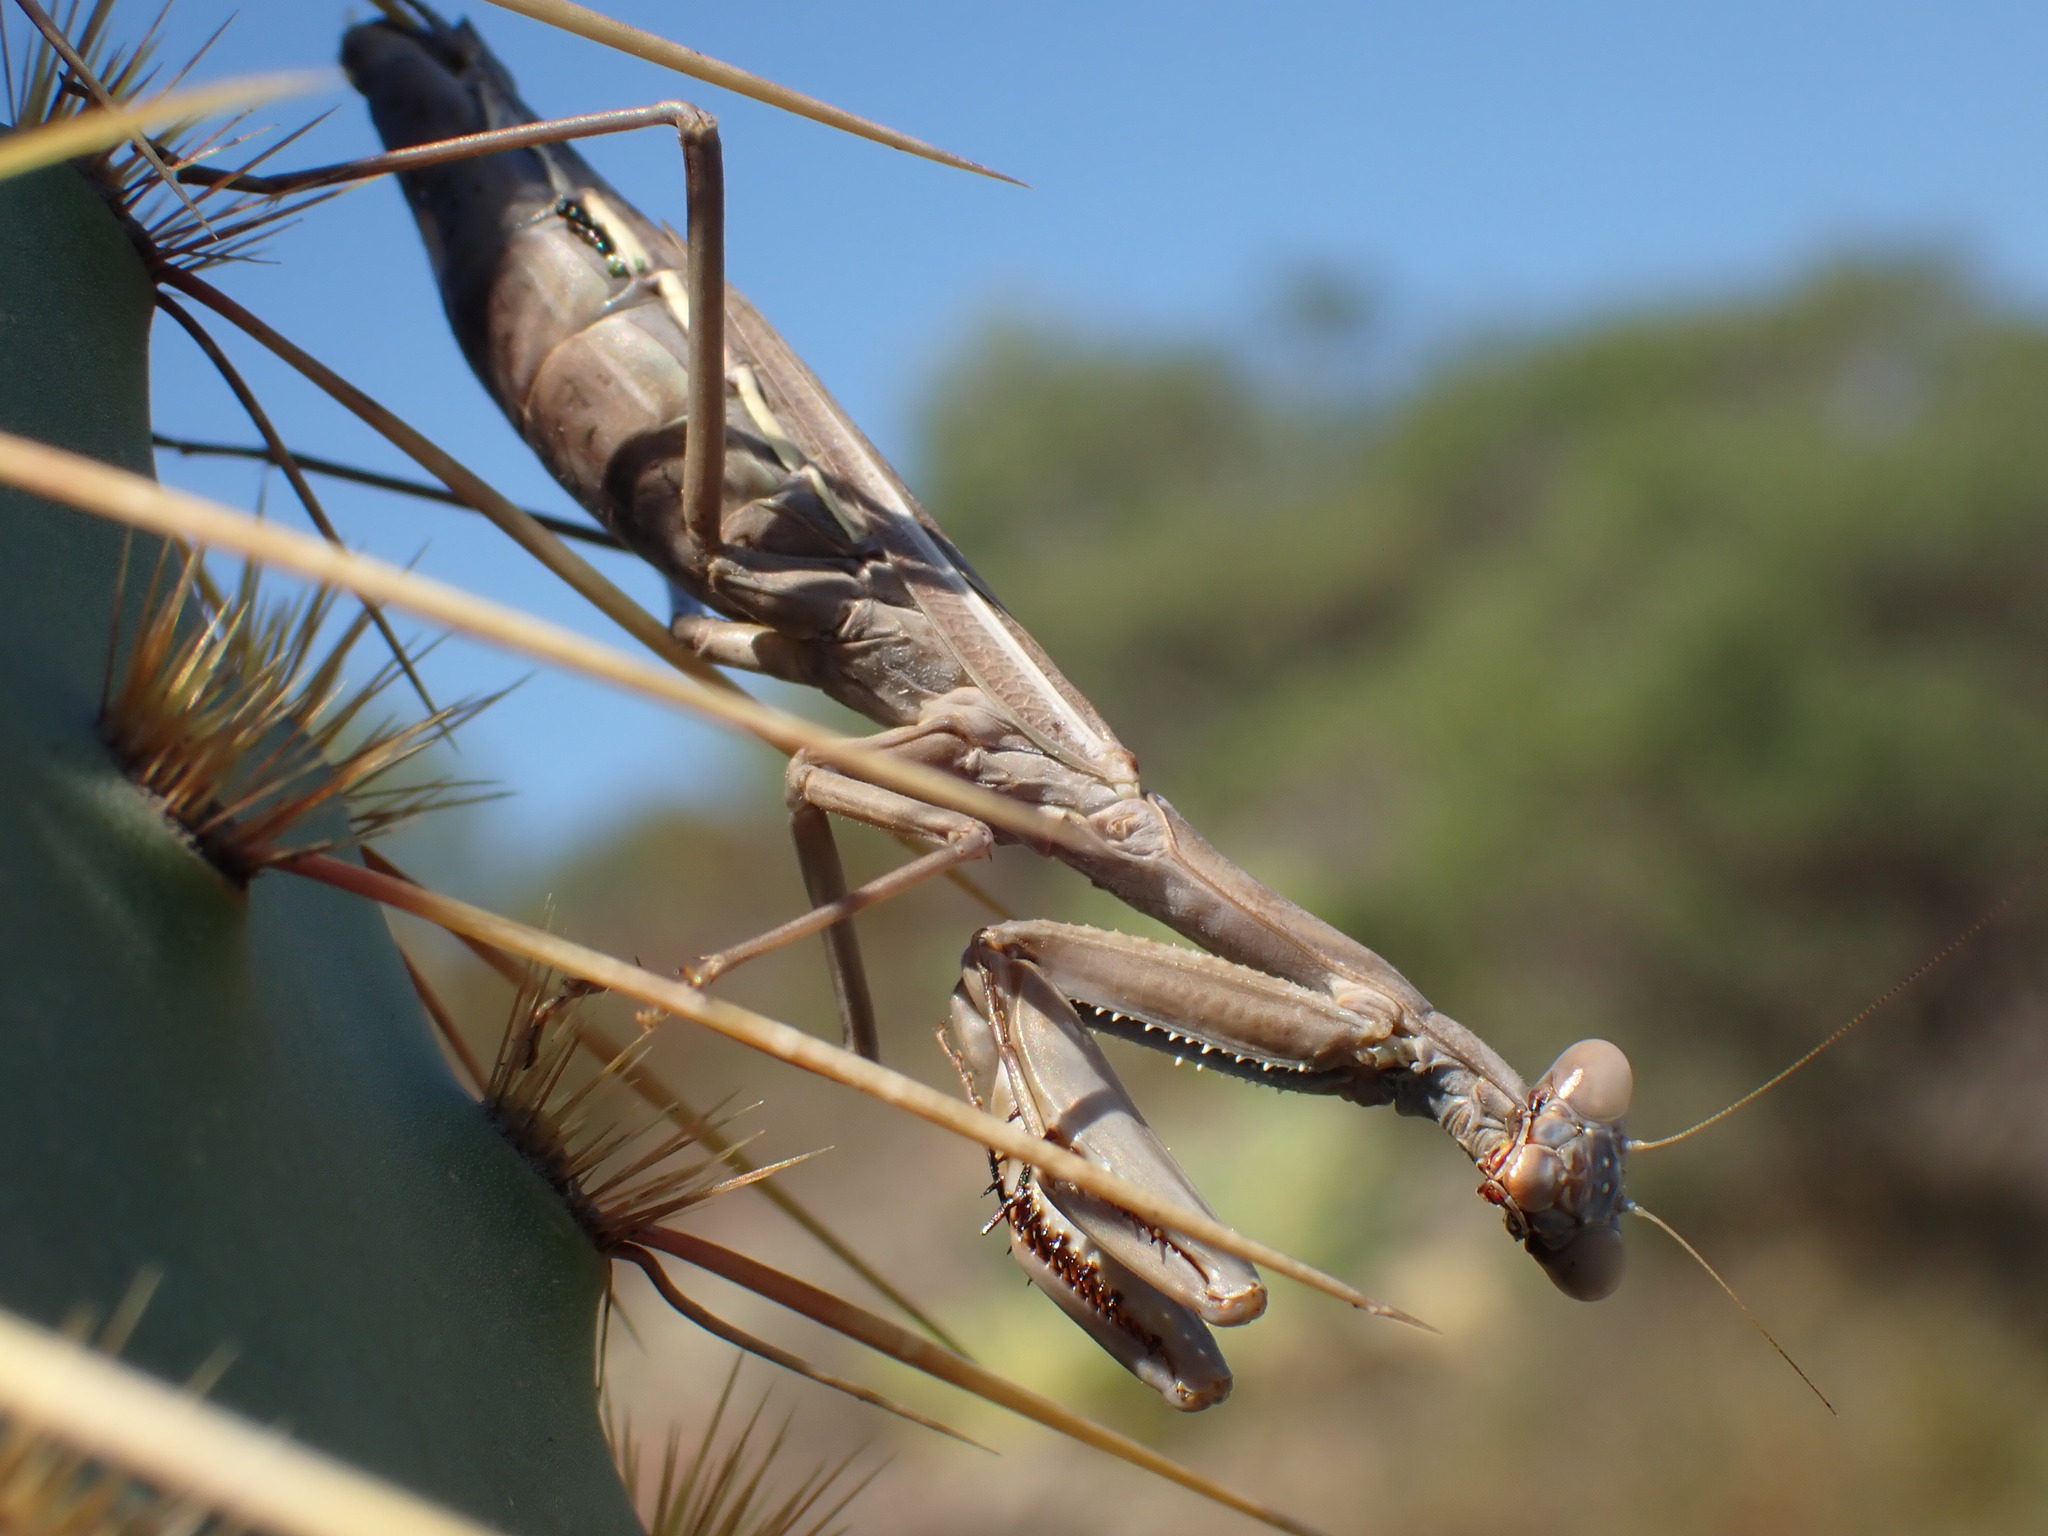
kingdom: Animalia
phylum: Arthropoda
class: Insecta
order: Mantodea
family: Eremiaphilidae
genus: Iris
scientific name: Iris oratoria
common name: Mediterranean mantis
